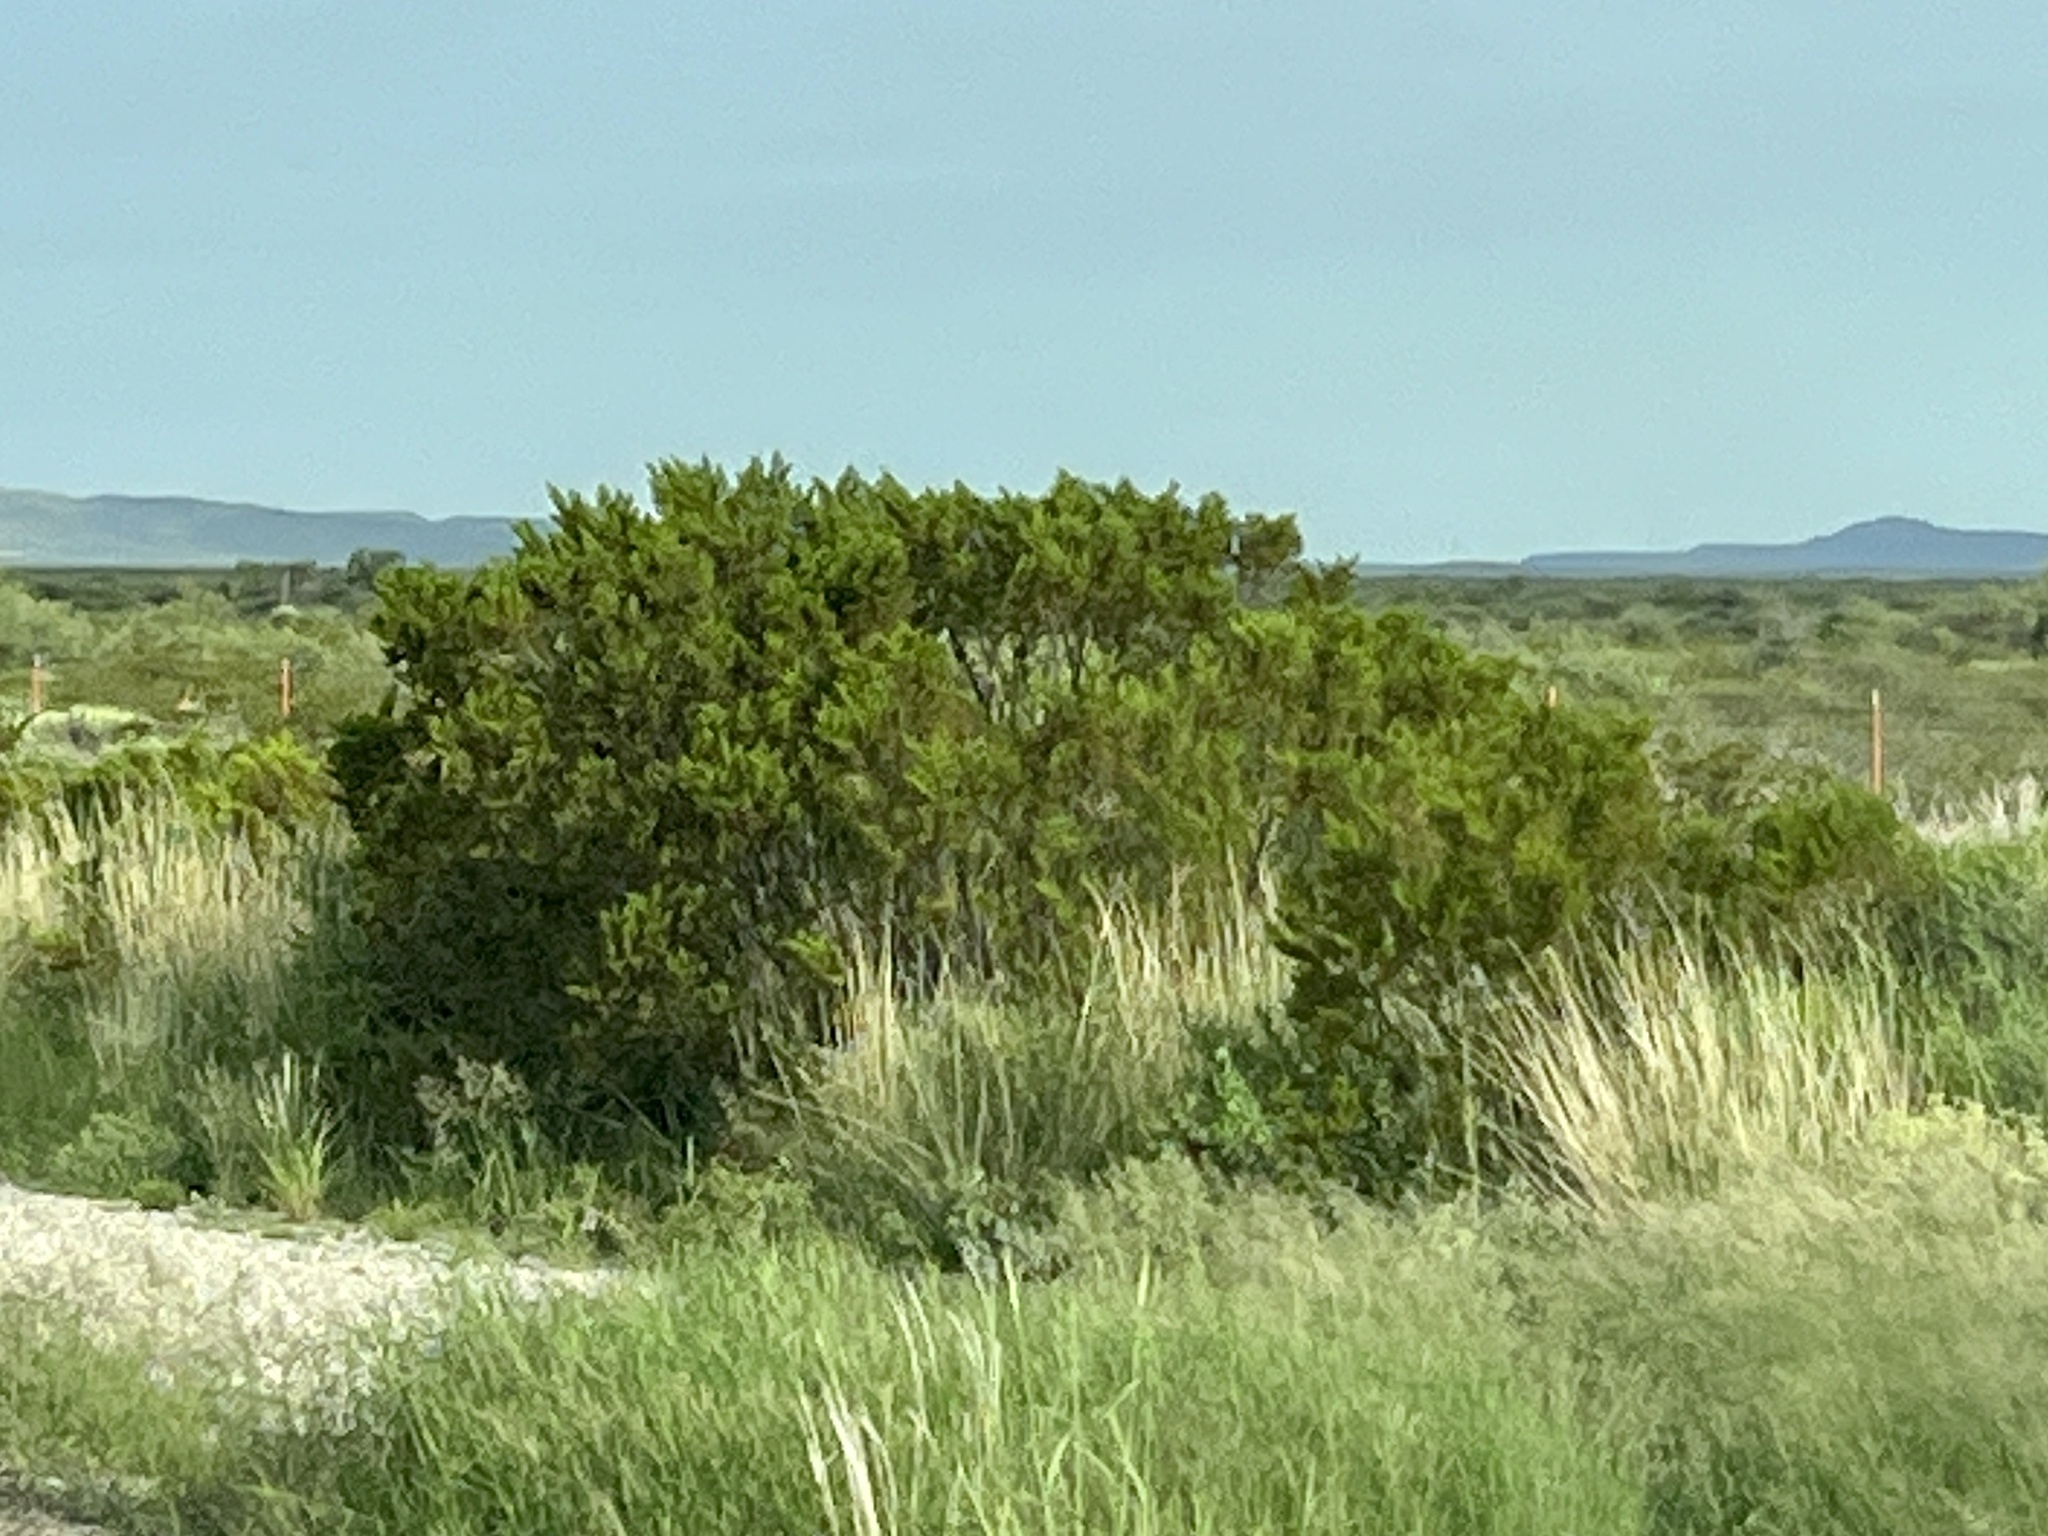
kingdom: Plantae
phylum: Tracheophyta
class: Magnoliopsida
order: Zygophyllales
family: Zygophyllaceae
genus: Larrea
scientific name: Larrea tridentata
